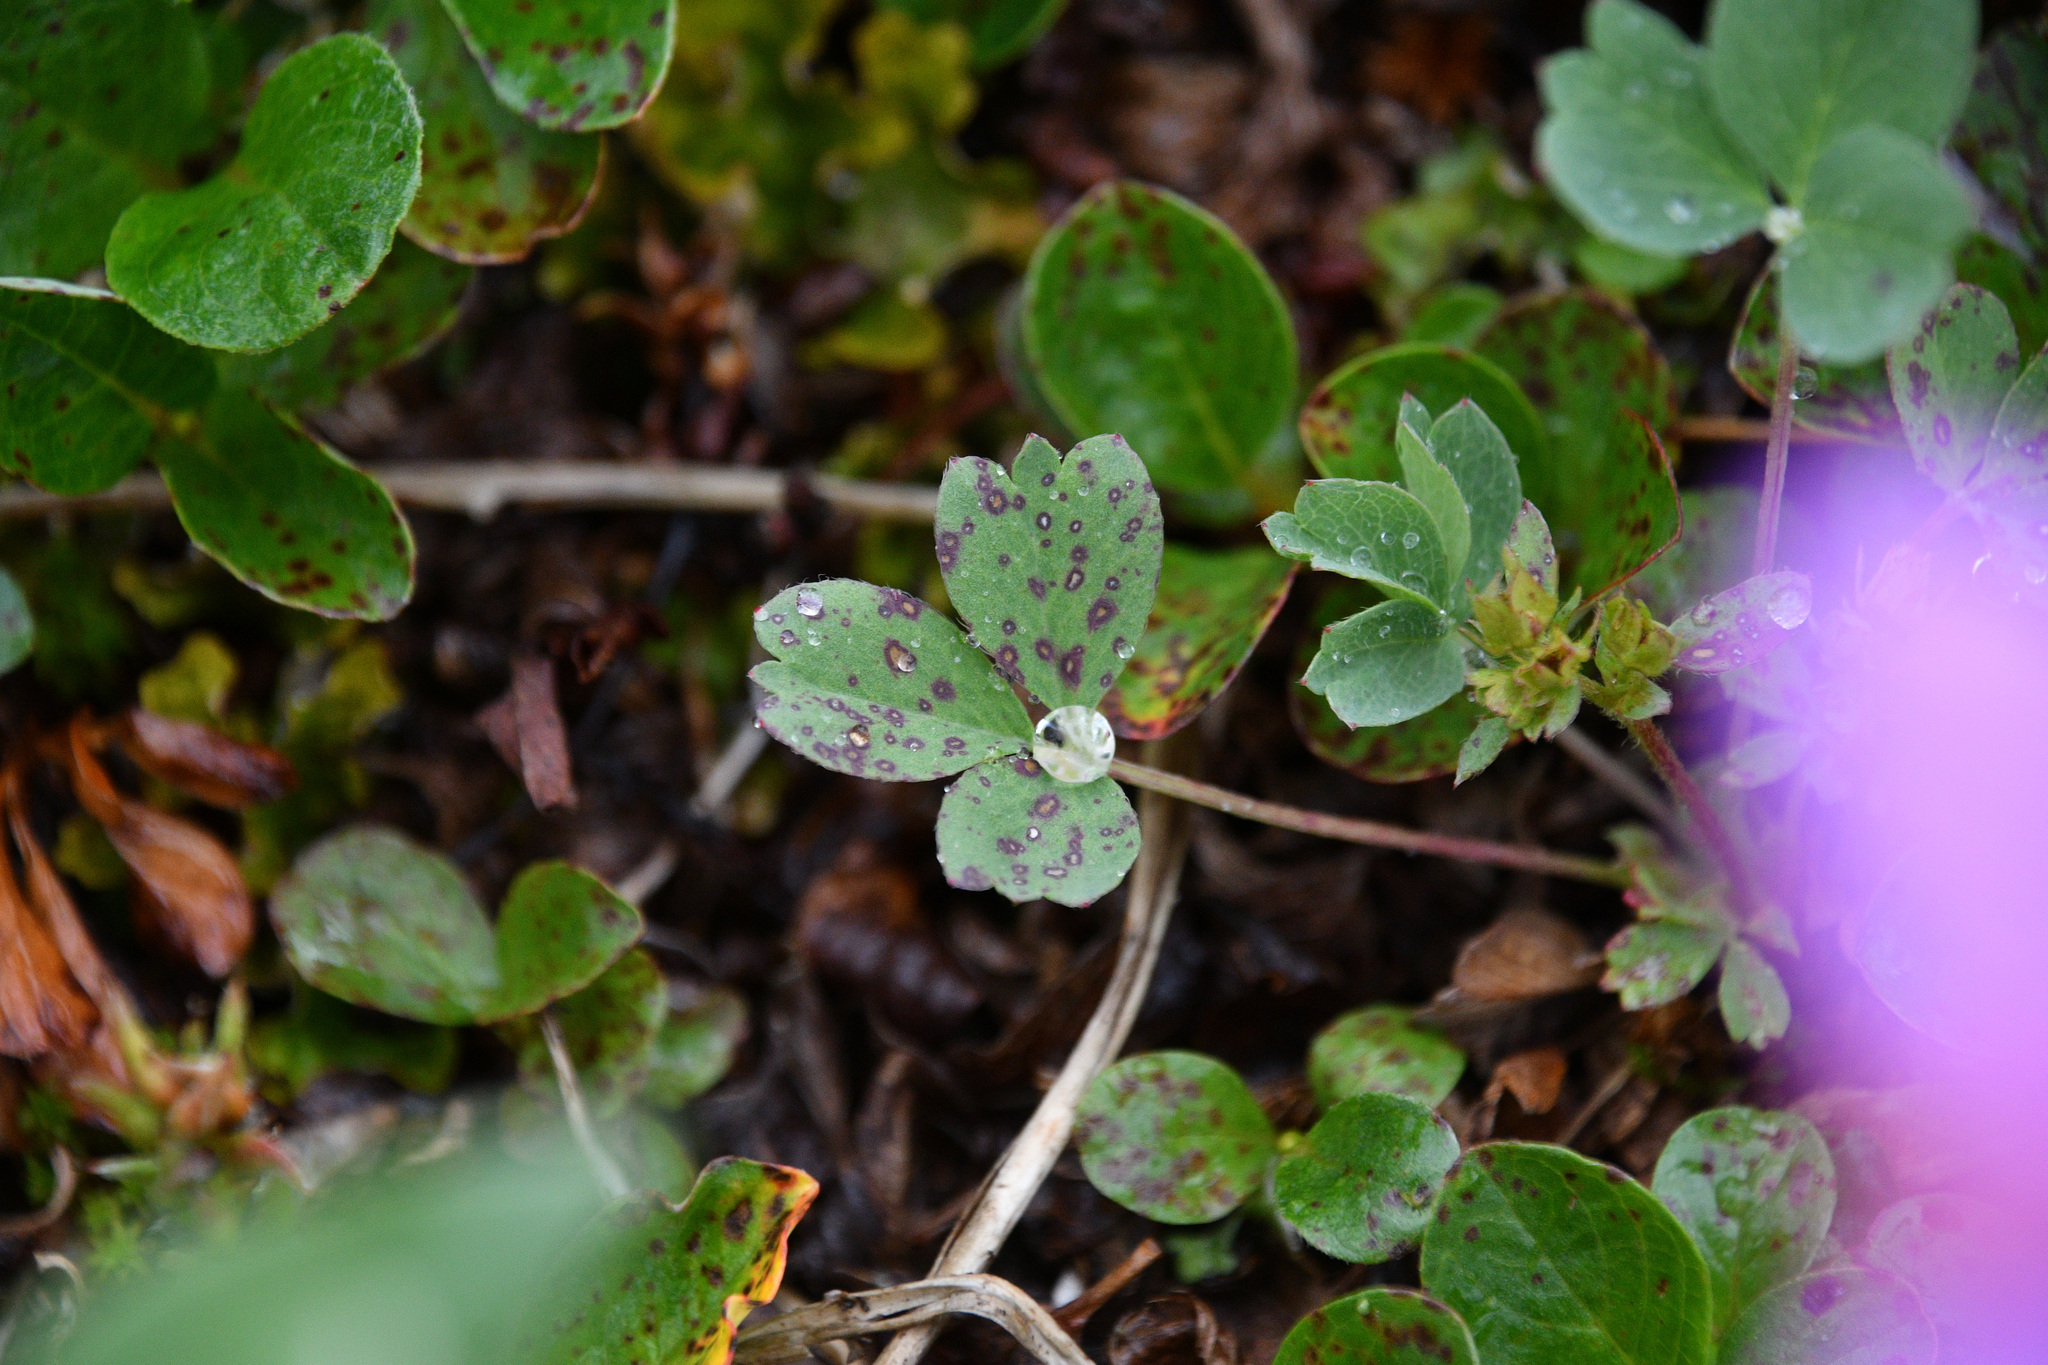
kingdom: Plantae
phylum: Tracheophyta
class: Magnoliopsida
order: Rosales
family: Rosaceae
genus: Sibbaldia
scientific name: Sibbaldia procumbens
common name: Creeping sibbaldia
